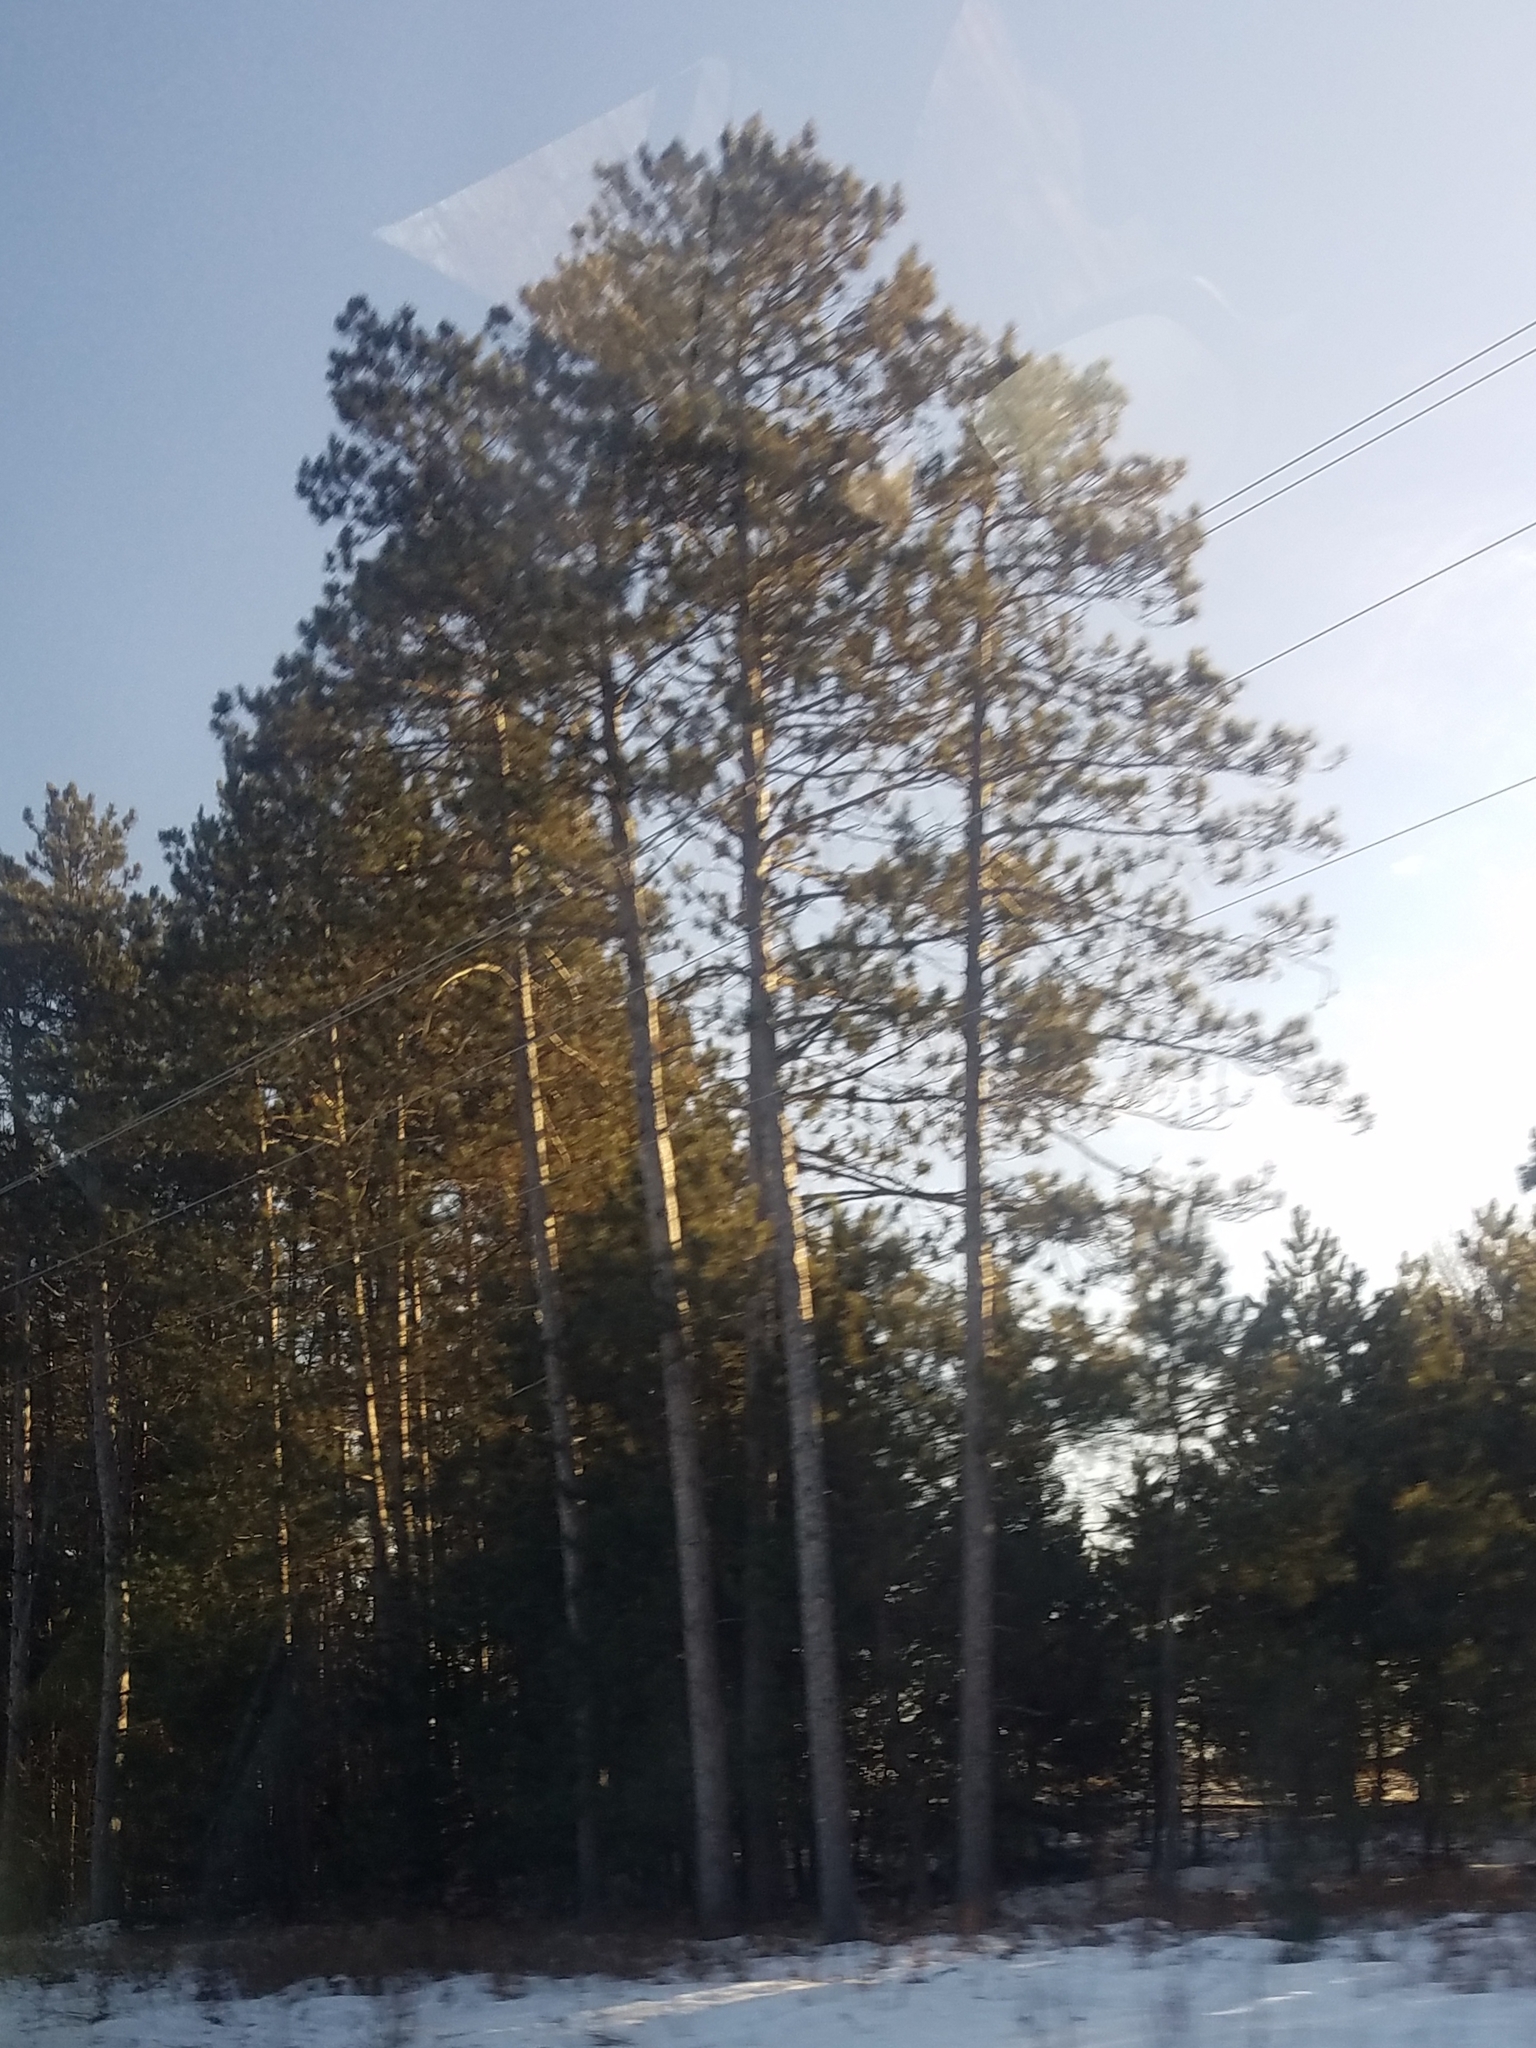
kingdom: Plantae
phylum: Tracheophyta
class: Pinopsida
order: Pinales
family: Pinaceae
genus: Pinus
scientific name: Pinus resinosa
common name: Norway pine
